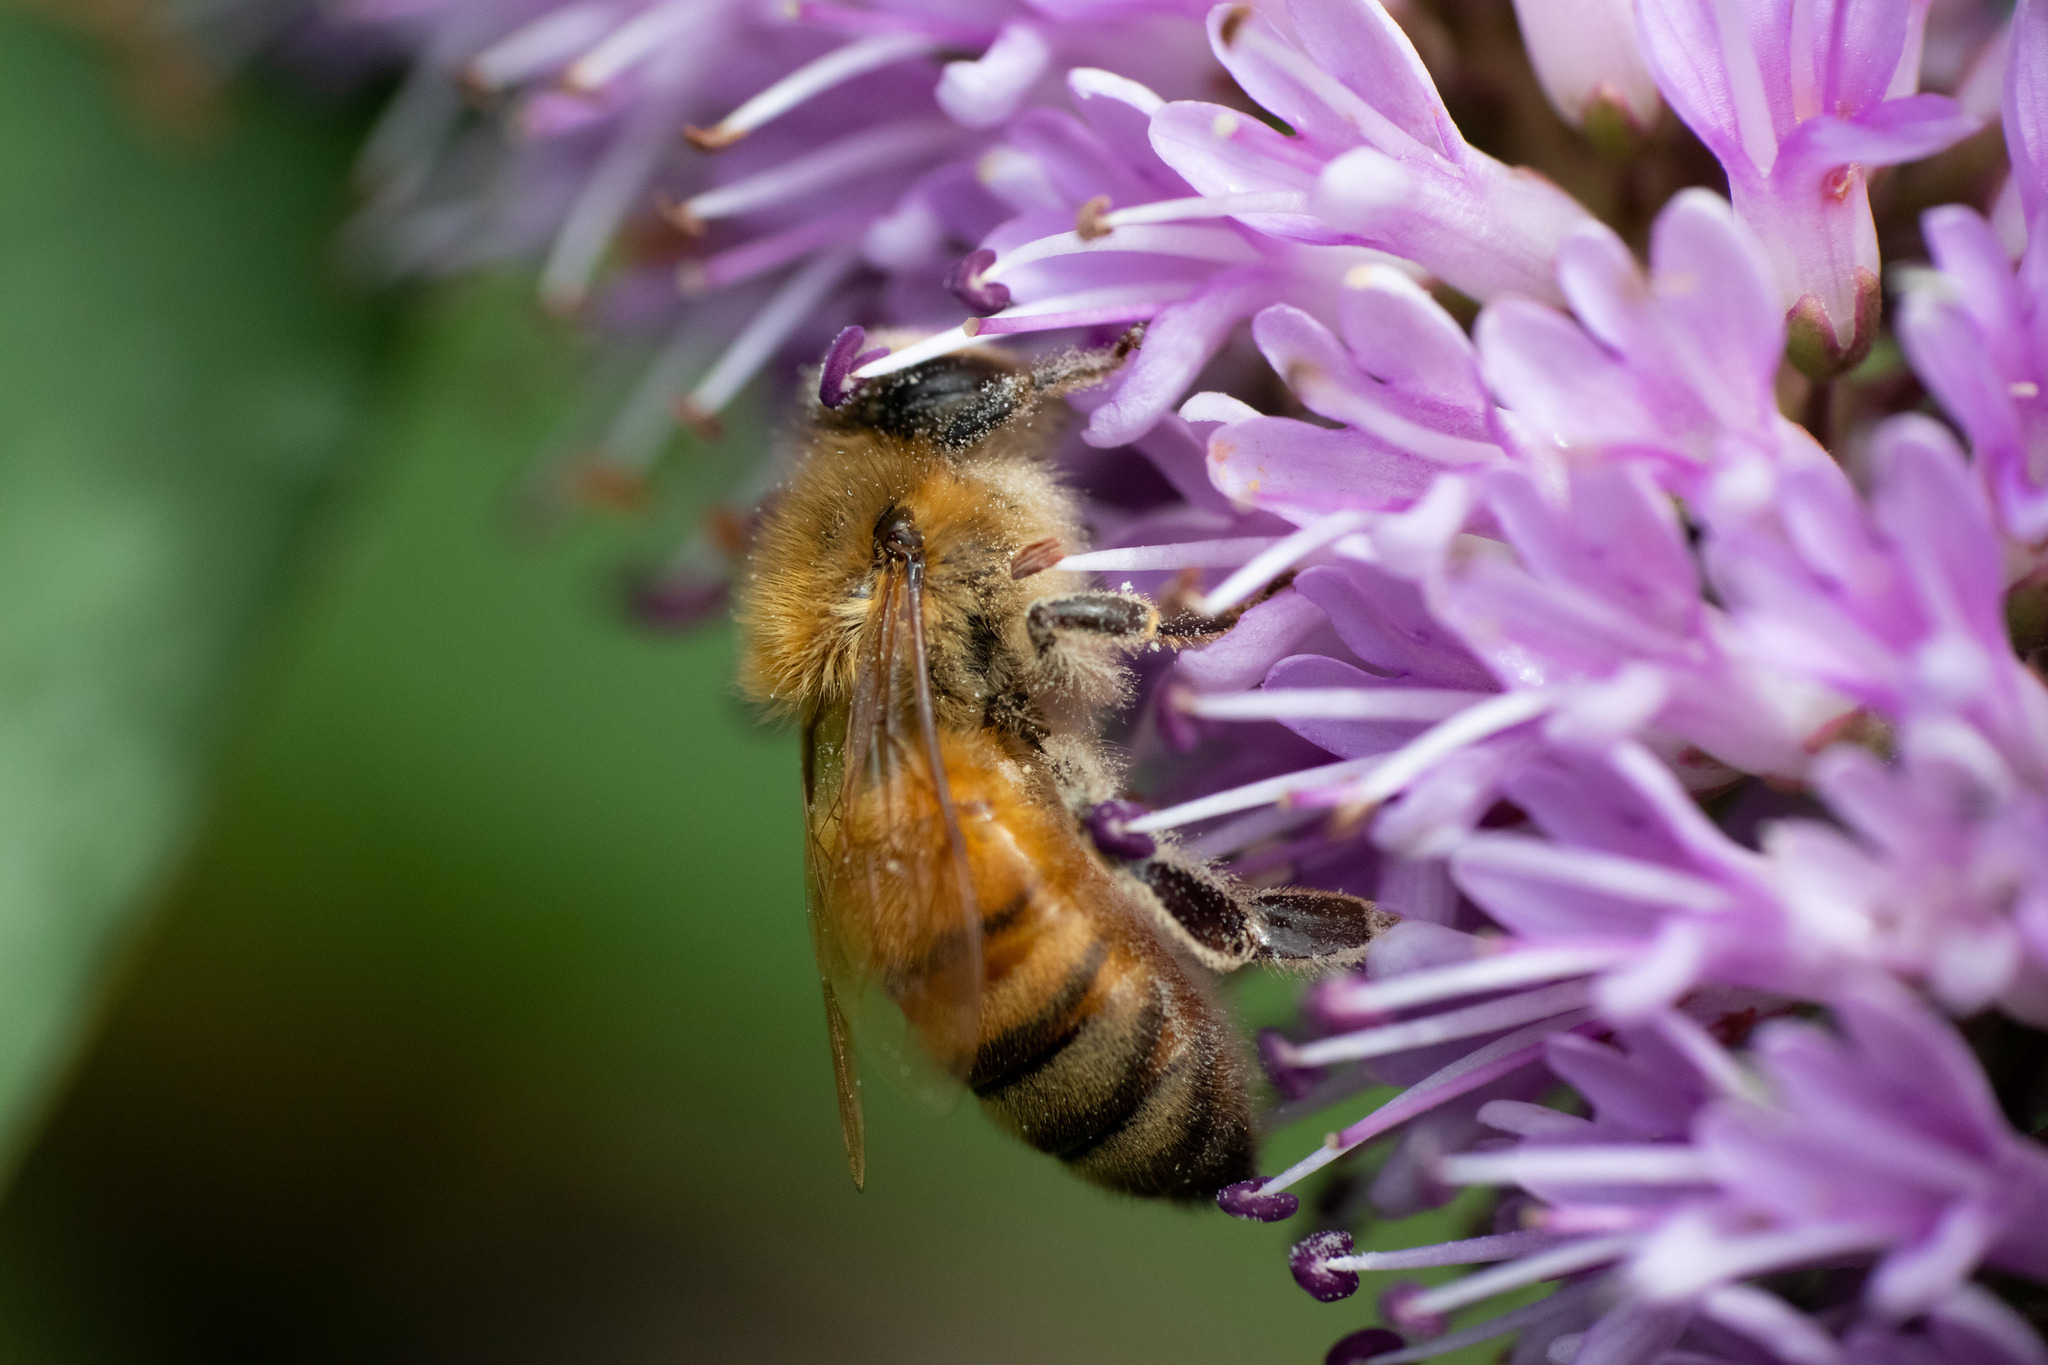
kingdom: Animalia
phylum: Arthropoda
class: Insecta
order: Hymenoptera
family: Apidae
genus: Apis
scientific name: Apis mellifera
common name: Honey bee
